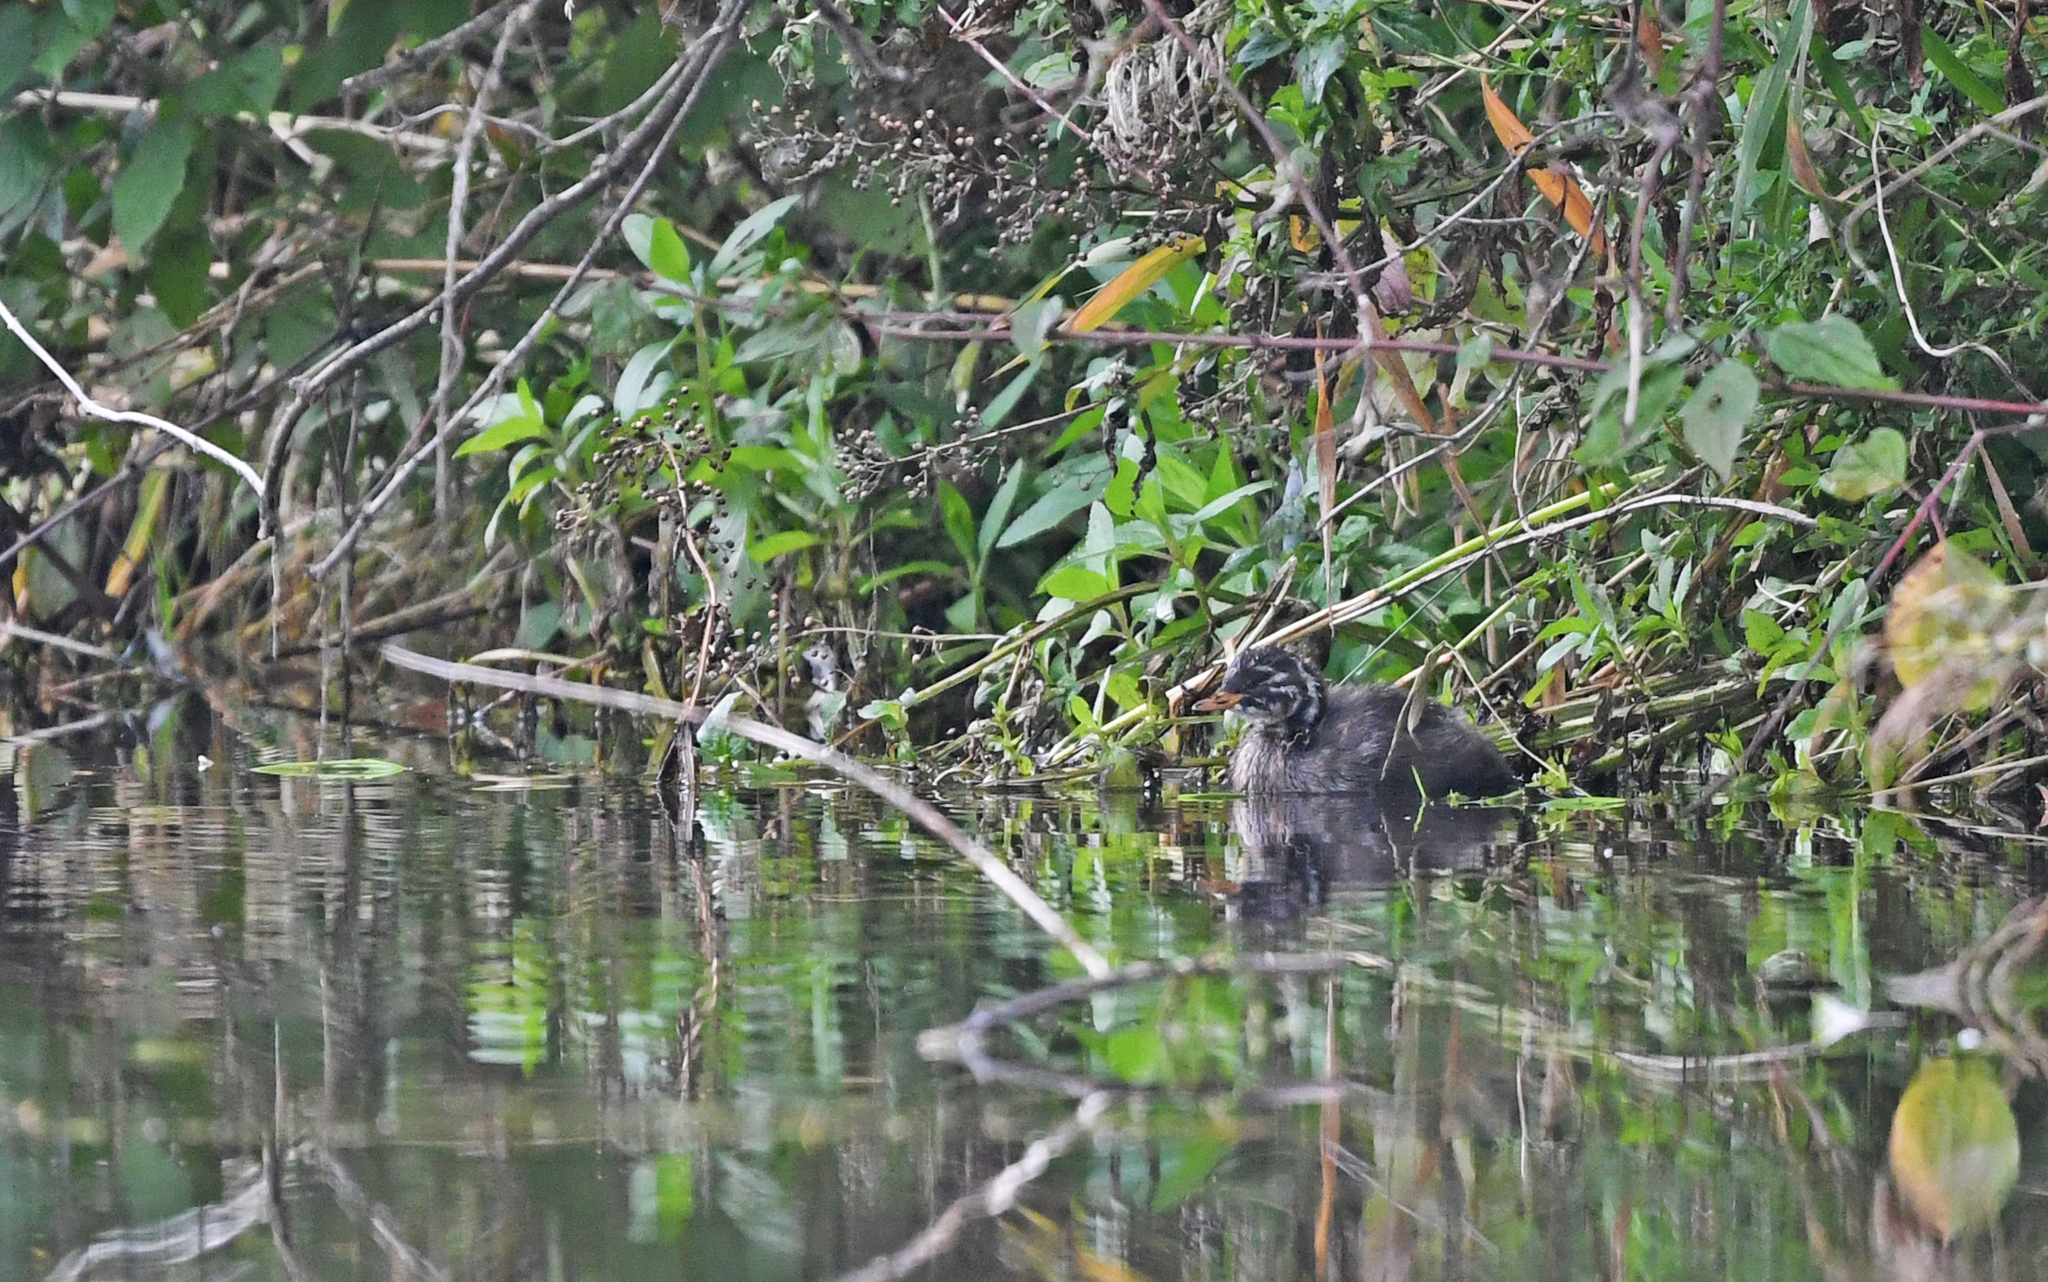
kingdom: Animalia
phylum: Chordata
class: Aves
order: Podicipediformes
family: Podicipedidae
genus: Tachybaptus
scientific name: Tachybaptus ruficollis
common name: Little grebe
